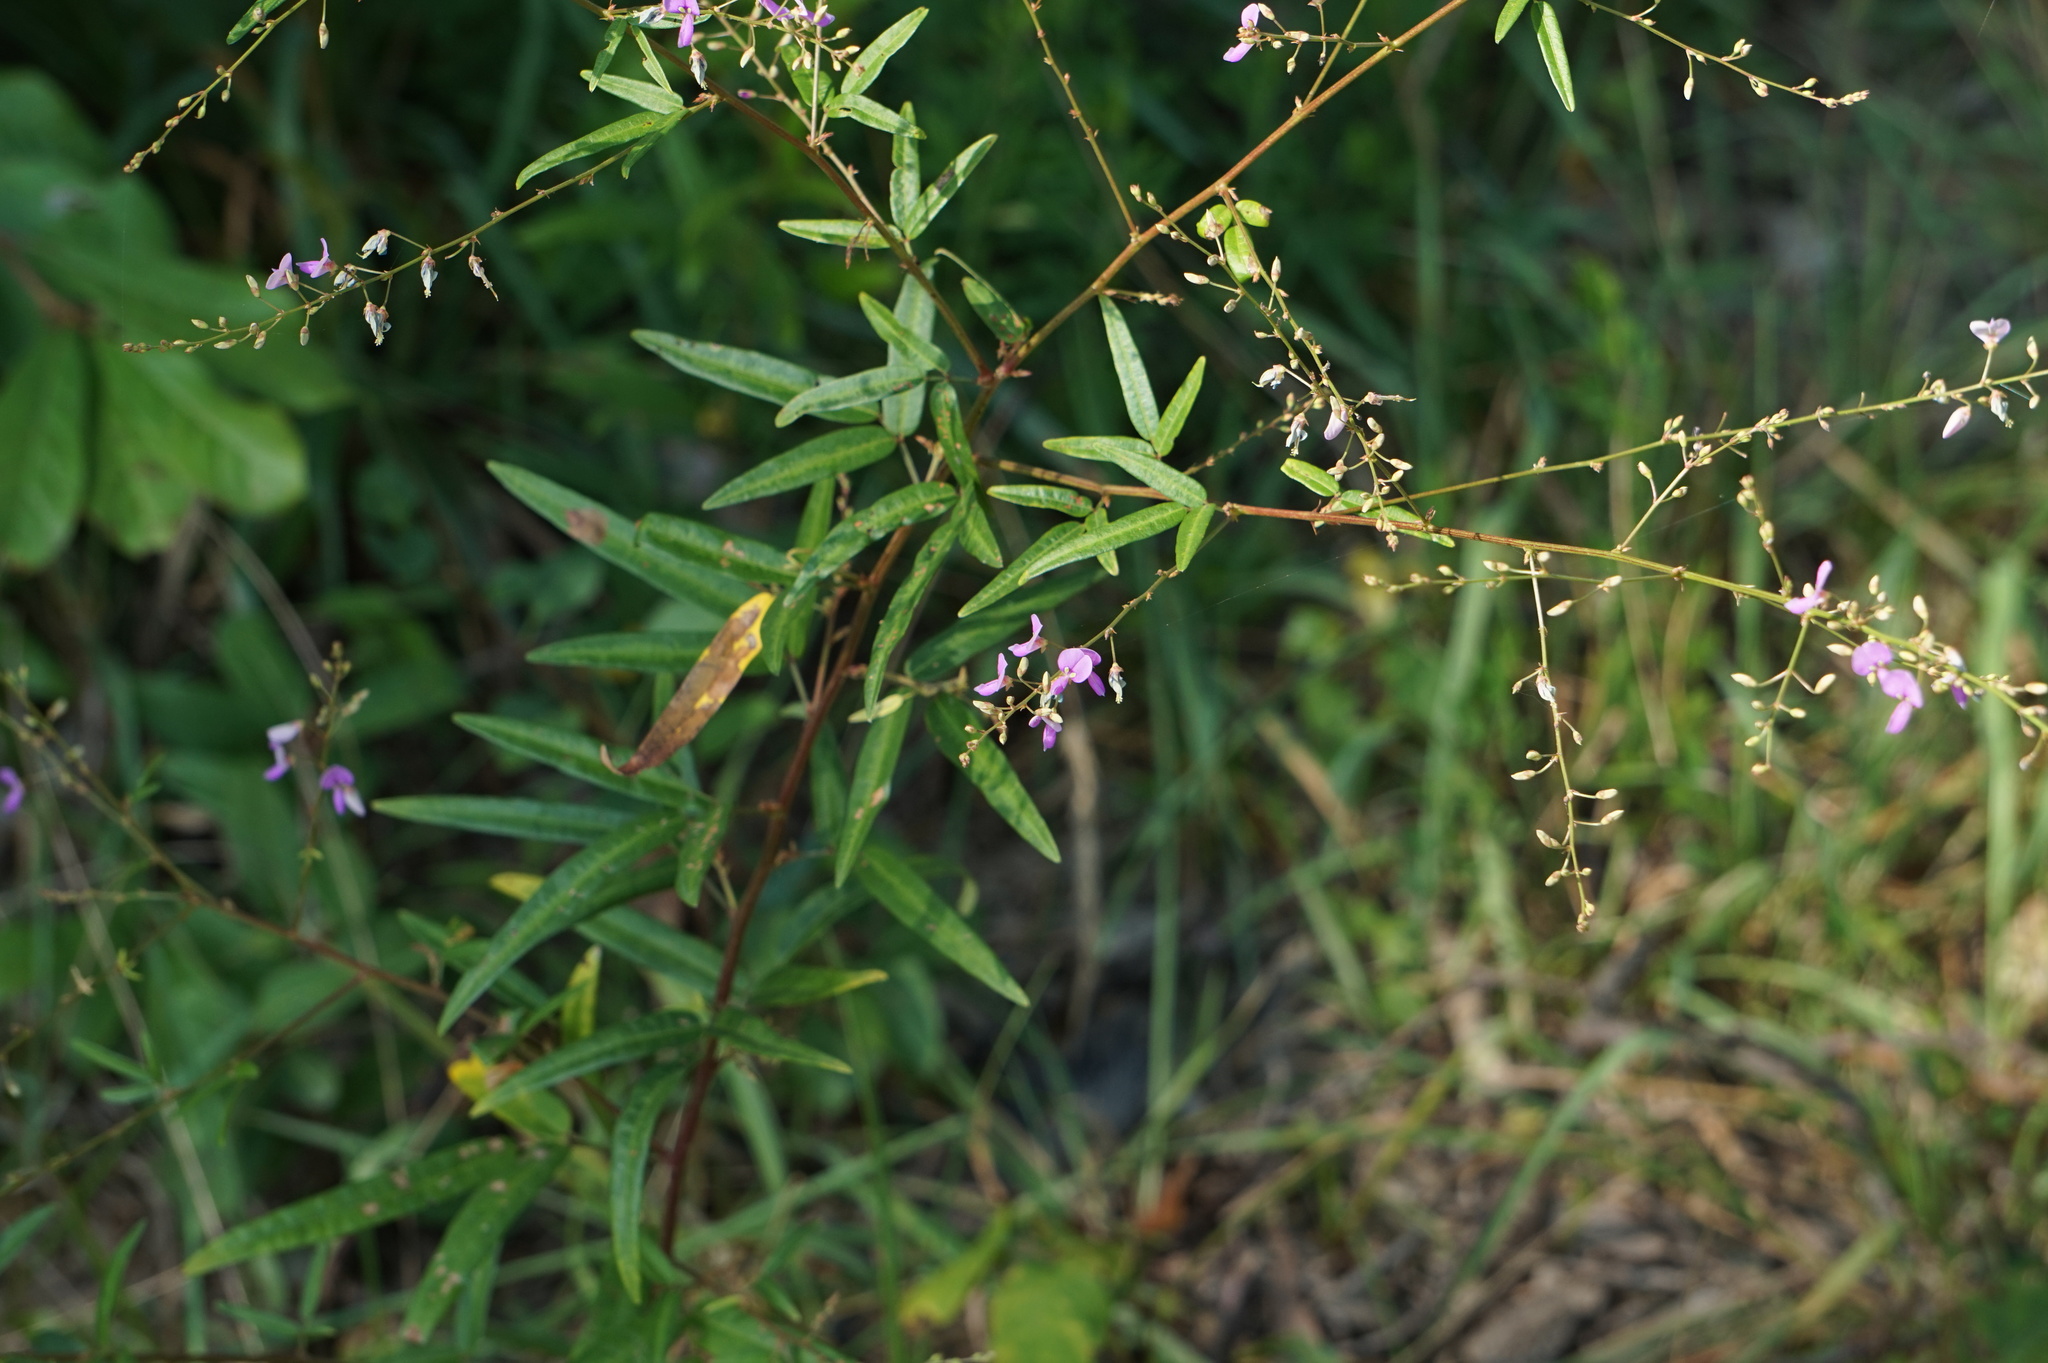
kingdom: Plantae
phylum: Tracheophyta
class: Magnoliopsida
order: Fabales
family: Fabaceae
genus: Desmodium
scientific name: Desmodium paniculatum
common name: Panicled tick-clover
